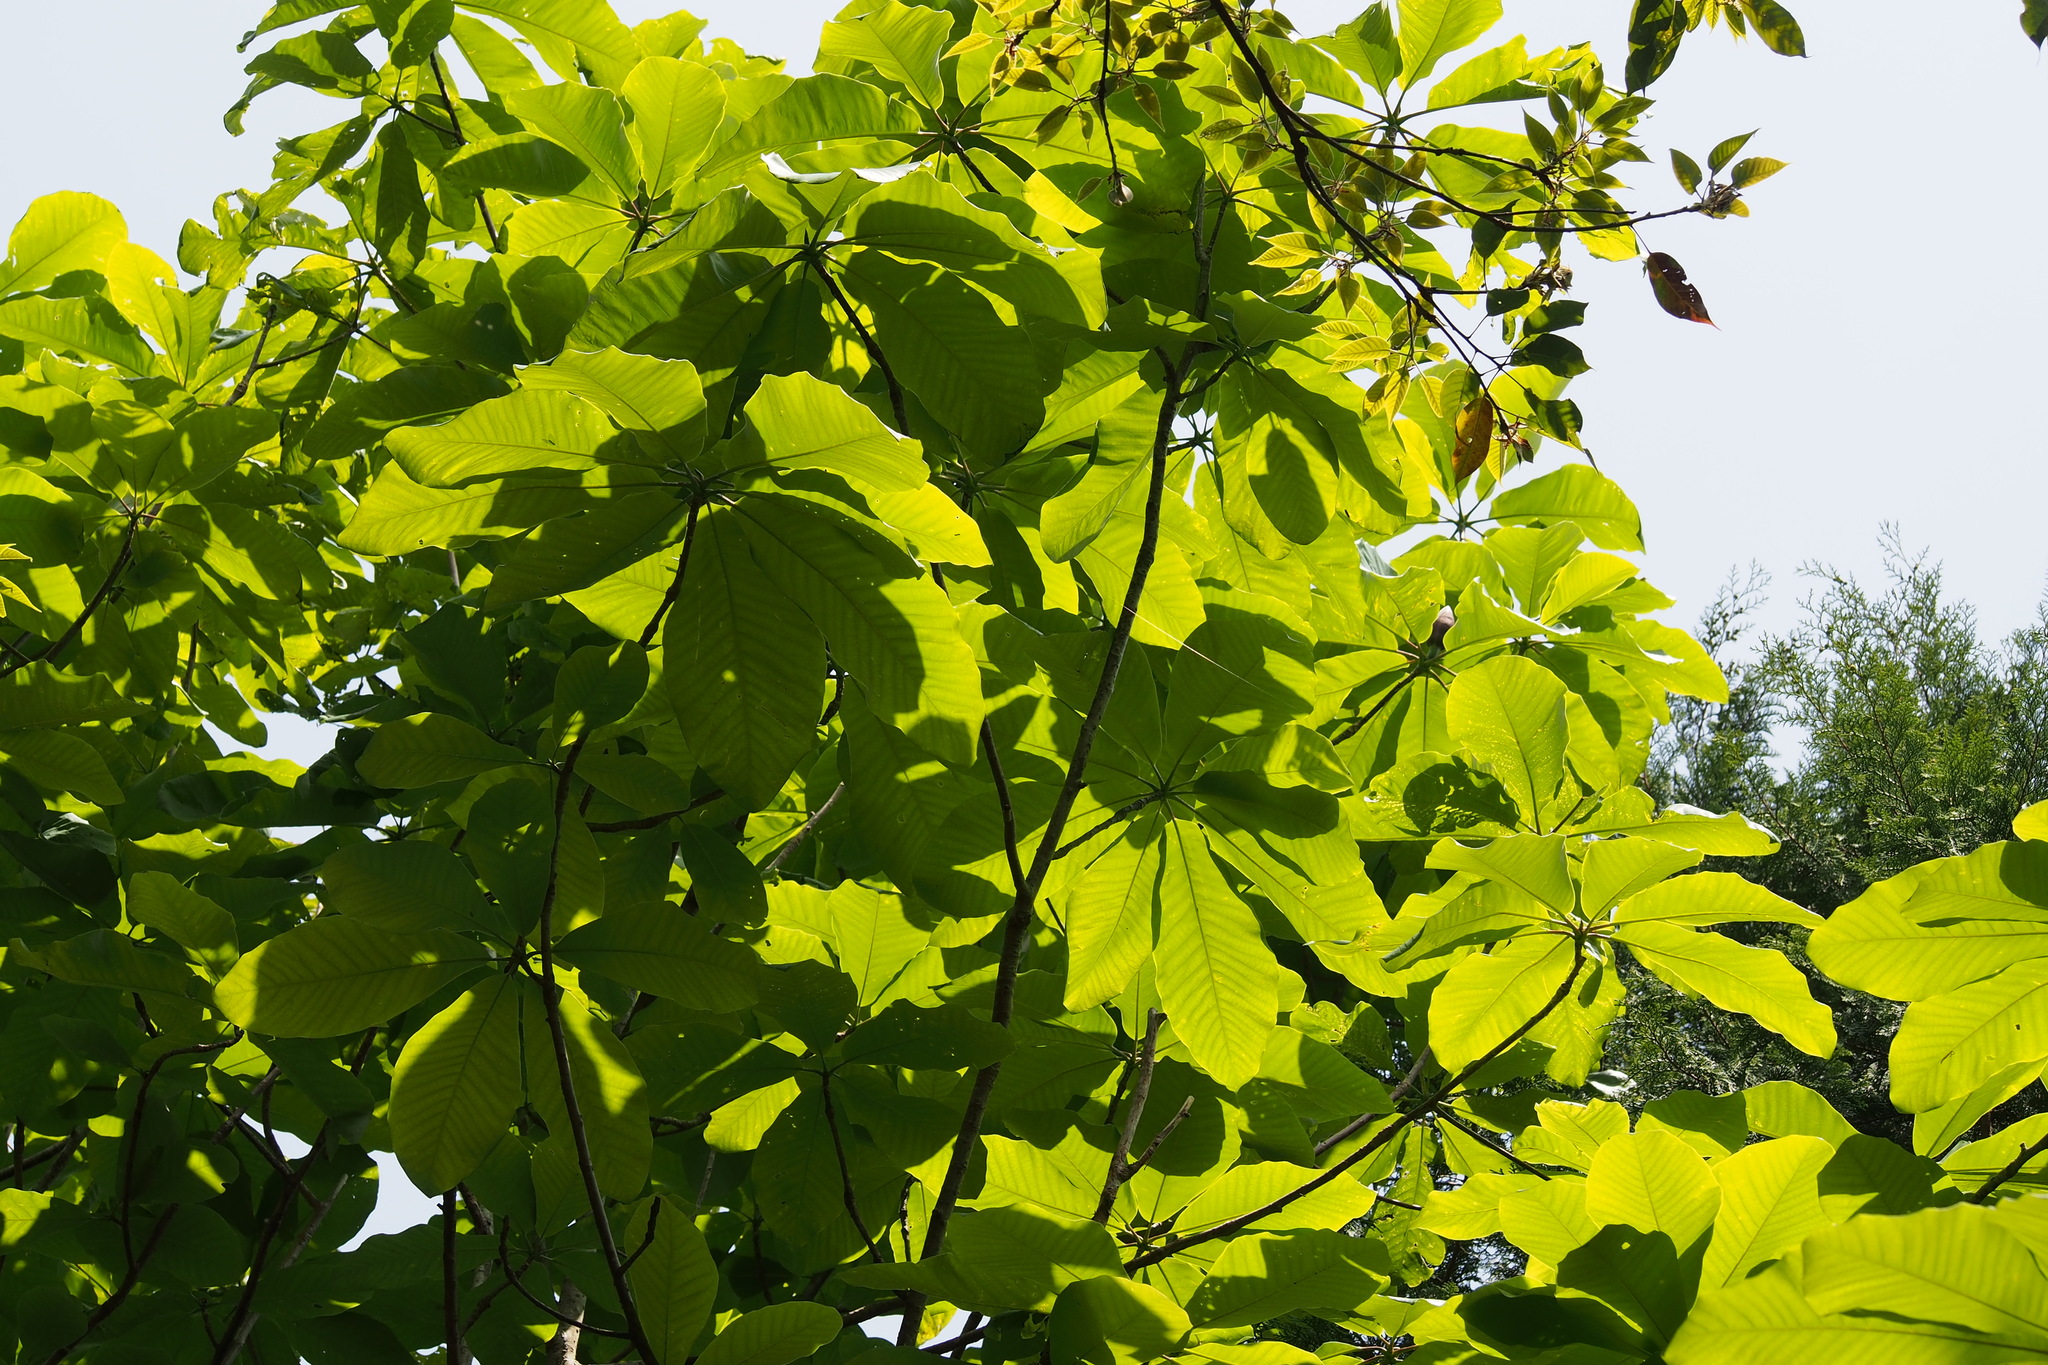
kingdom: Plantae
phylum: Tracheophyta
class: Magnoliopsida
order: Magnoliales
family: Magnoliaceae
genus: Magnolia
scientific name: Magnolia obovata
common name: Japanese whitebark magnolia
